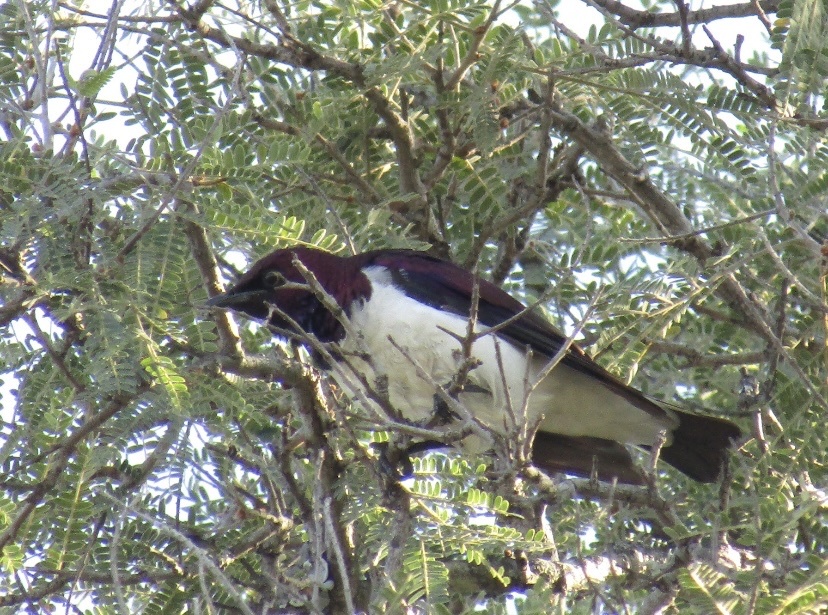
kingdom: Animalia
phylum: Chordata
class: Aves
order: Passeriformes
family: Sturnidae
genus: Cinnyricinclus
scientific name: Cinnyricinclus leucogaster
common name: Violet-backed starling
